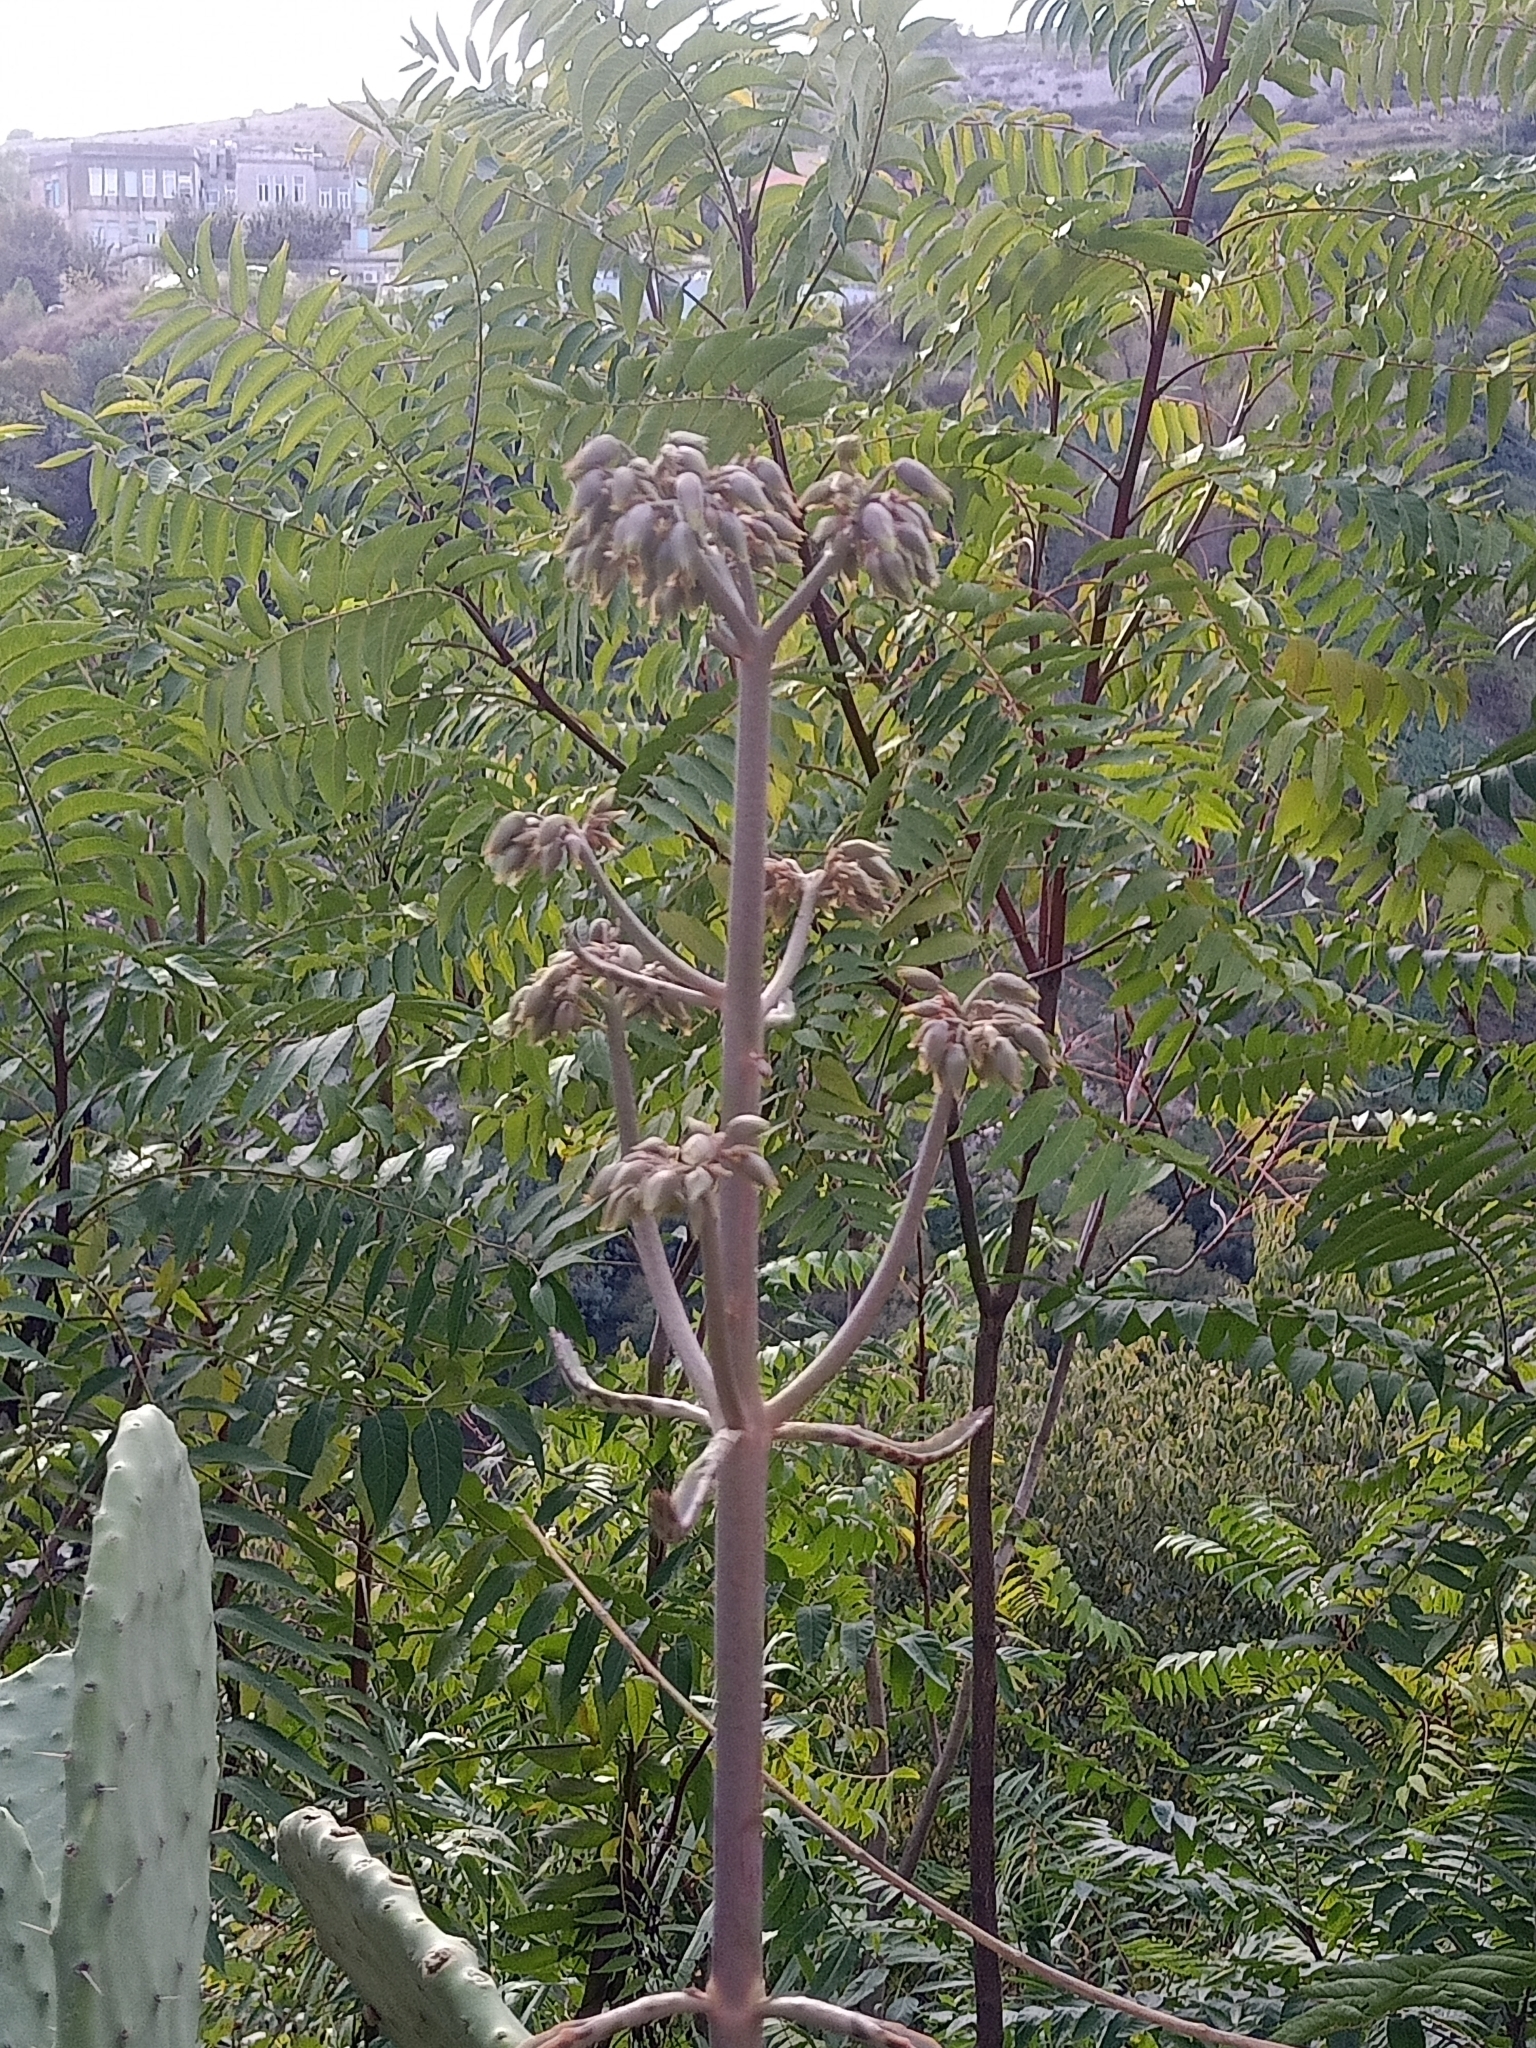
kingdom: Plantae
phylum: Tracheophyta
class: Magnoliopsida
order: Saxifragales
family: Crassulaceae
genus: Kalanchoe
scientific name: Kalanchoe houghtonii
